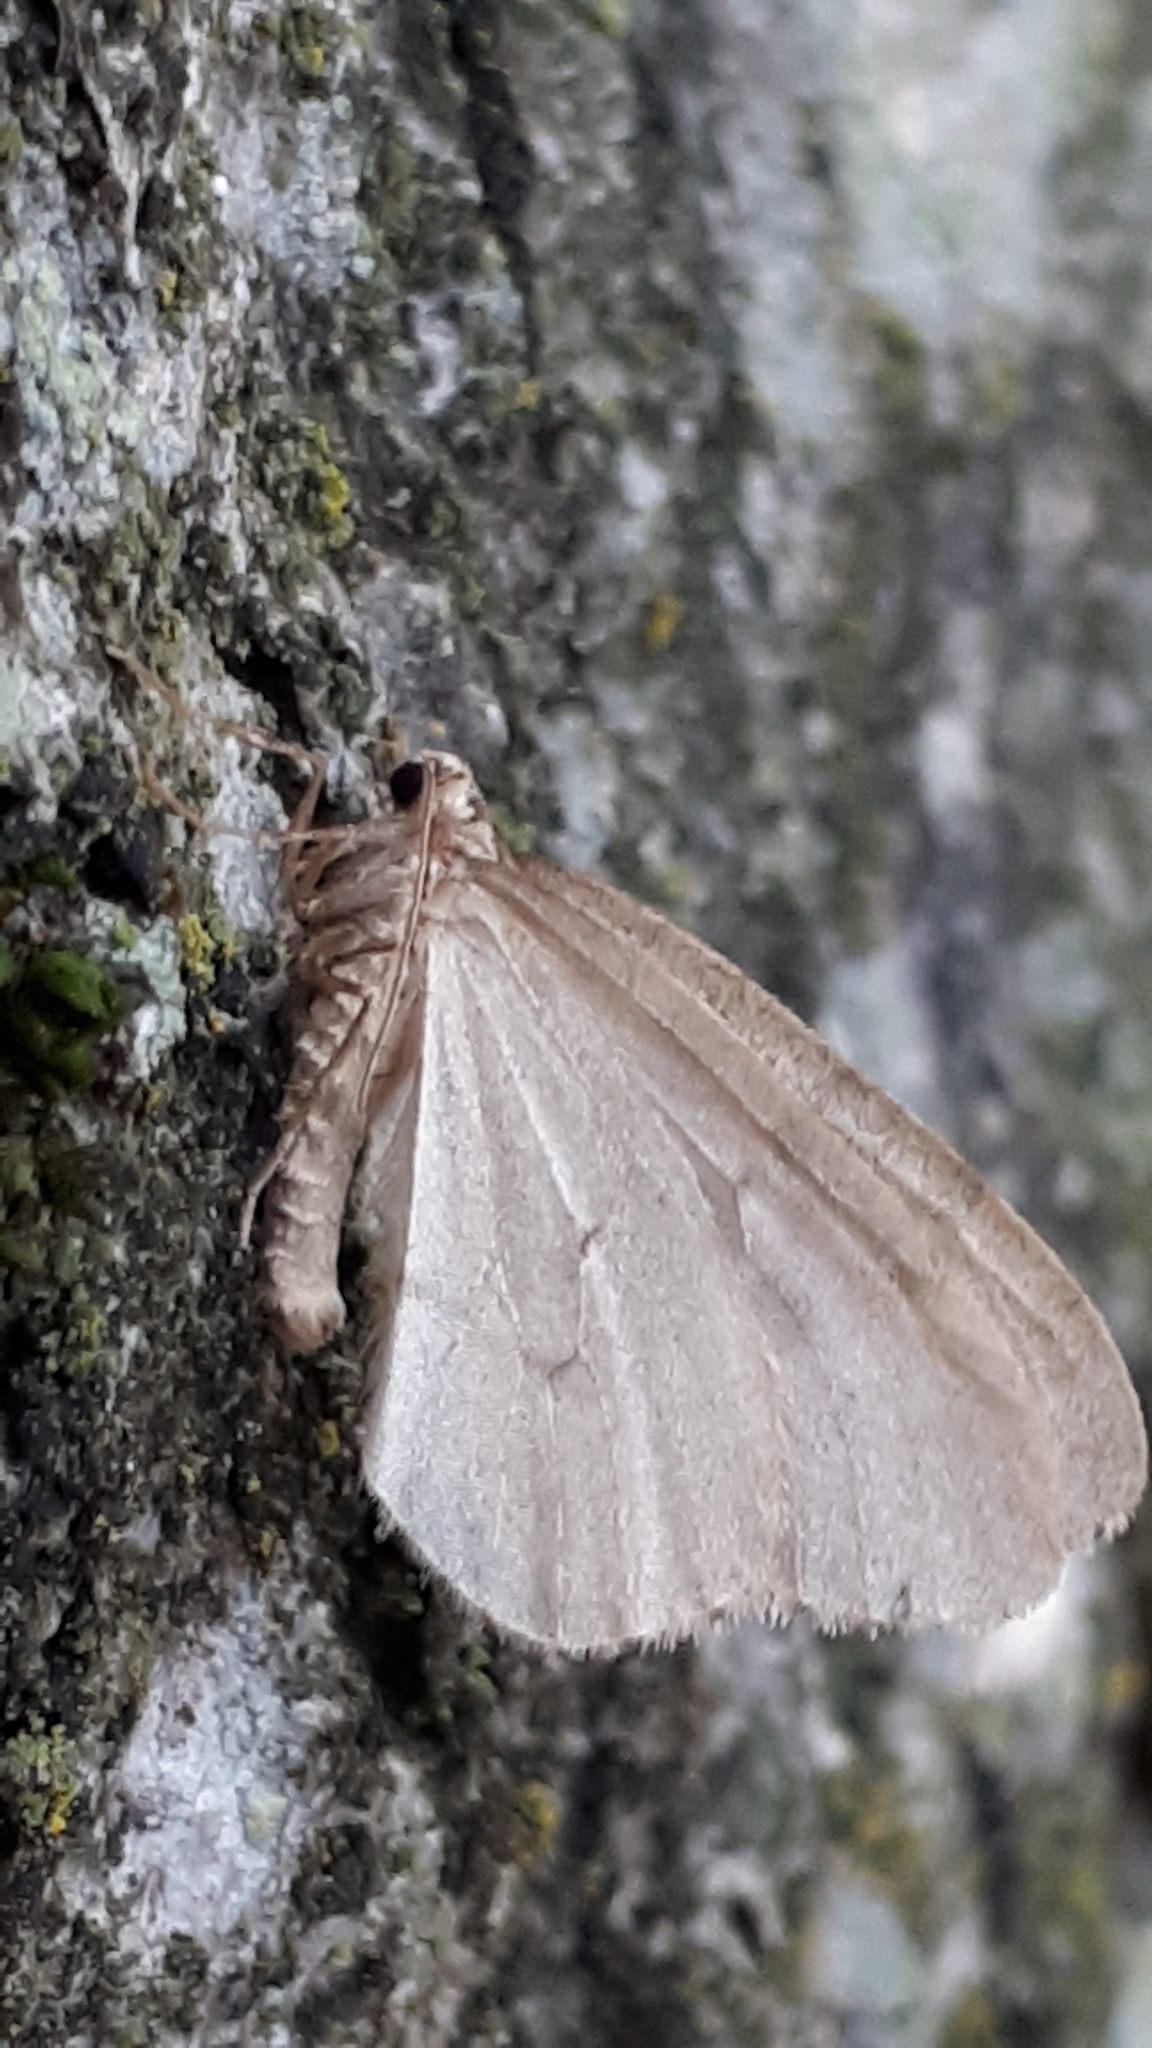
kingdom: Animalia
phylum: Arthropoda
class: Insecta
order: Lepidoptera
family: Geometridae
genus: Operophtera
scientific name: Operophtera brumata
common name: Winter moth
